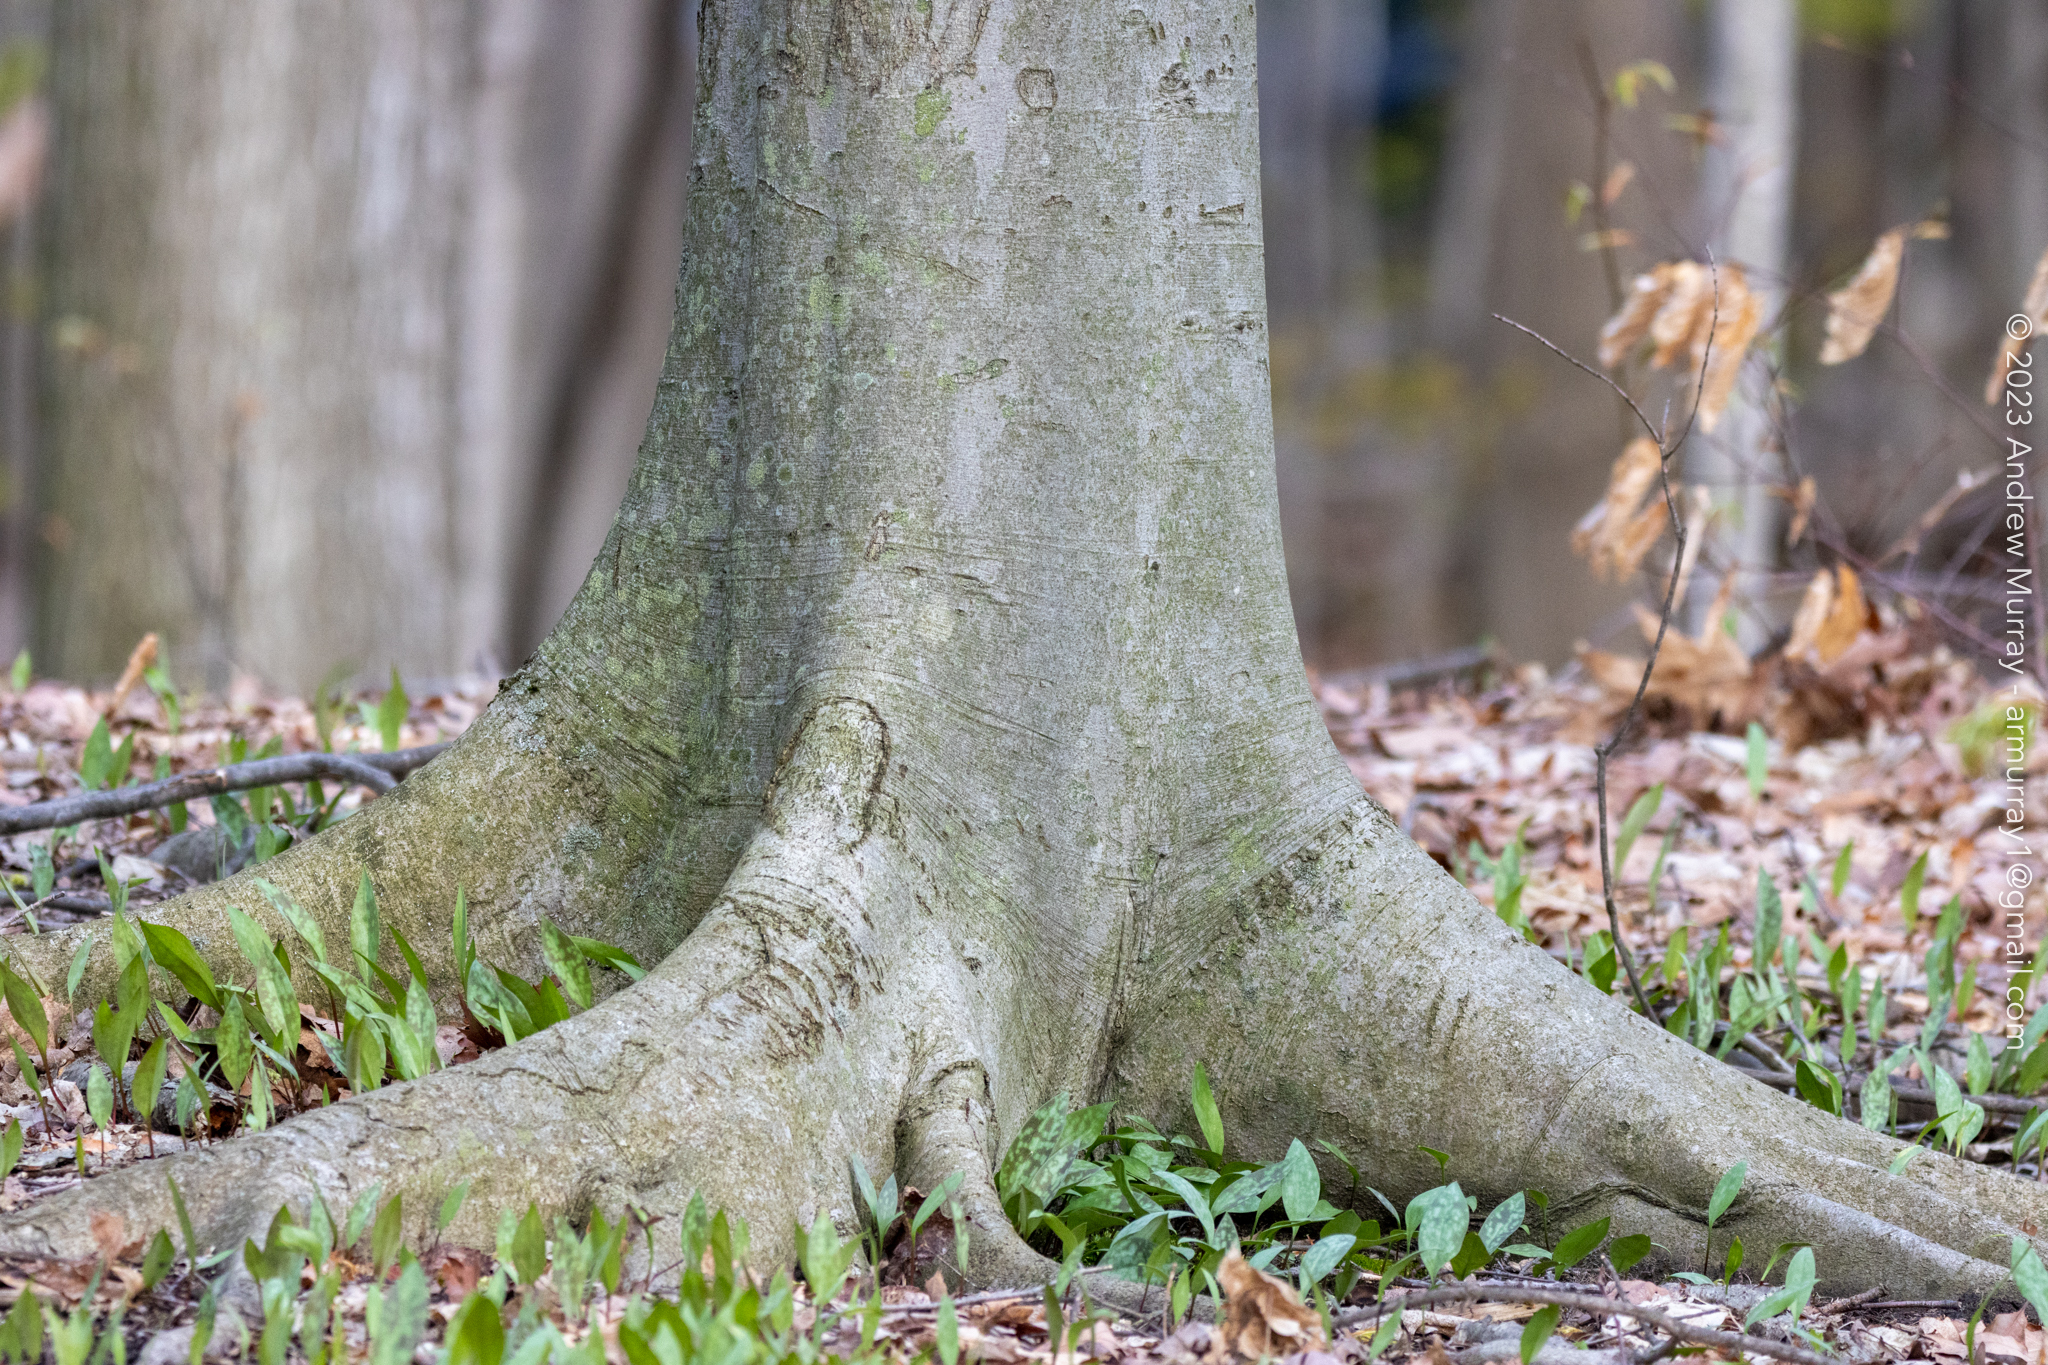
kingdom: Plantae
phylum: Tracheophyta
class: Magnoliopsida
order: Fagales
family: Fagaceae
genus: Fagus
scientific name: Fagus grandifolia
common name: American beech
